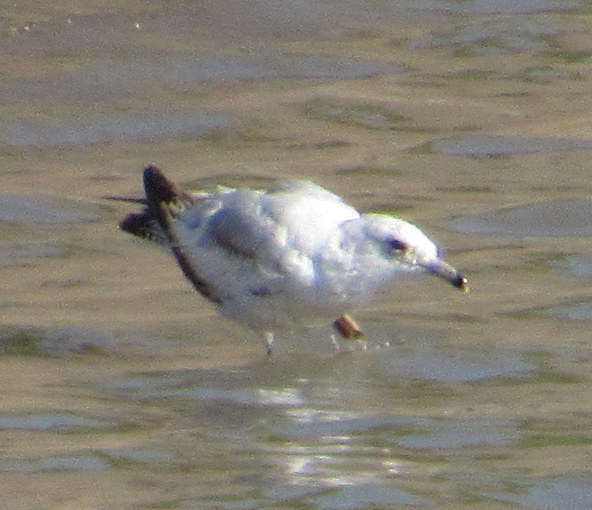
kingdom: Animalia
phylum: Chordata
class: Aves
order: Charadriiformes
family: Laridae
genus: Larus
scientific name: Larus delawarensis
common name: Ring-billed gull
